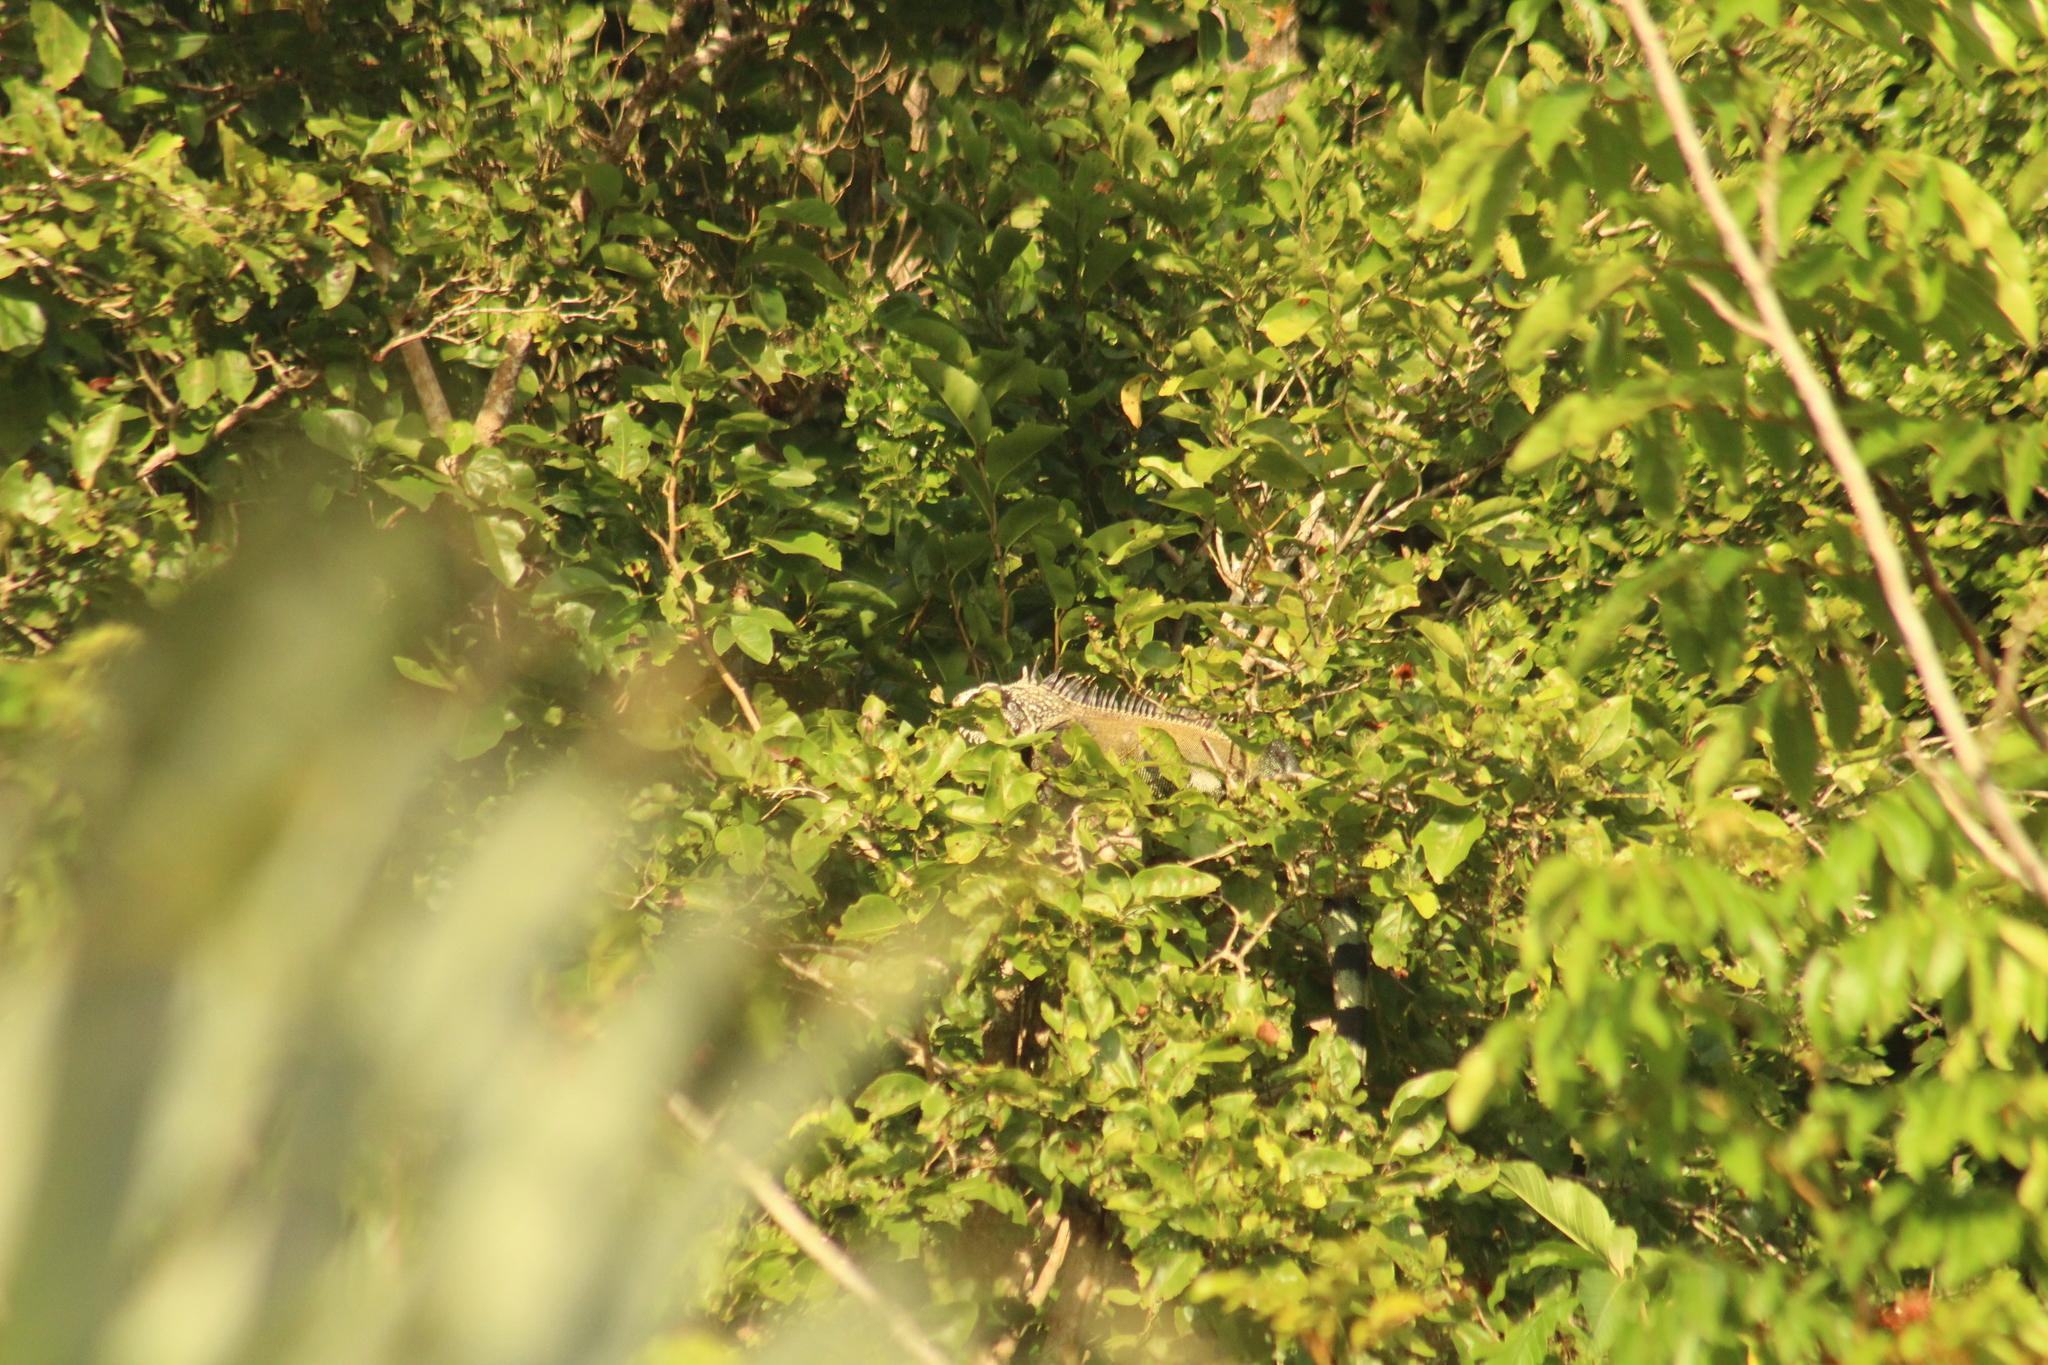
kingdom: Animalia
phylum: Chordata
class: Squamata
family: Iguanidae
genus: Iguana
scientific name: Iguana iguana
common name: Green iguana
